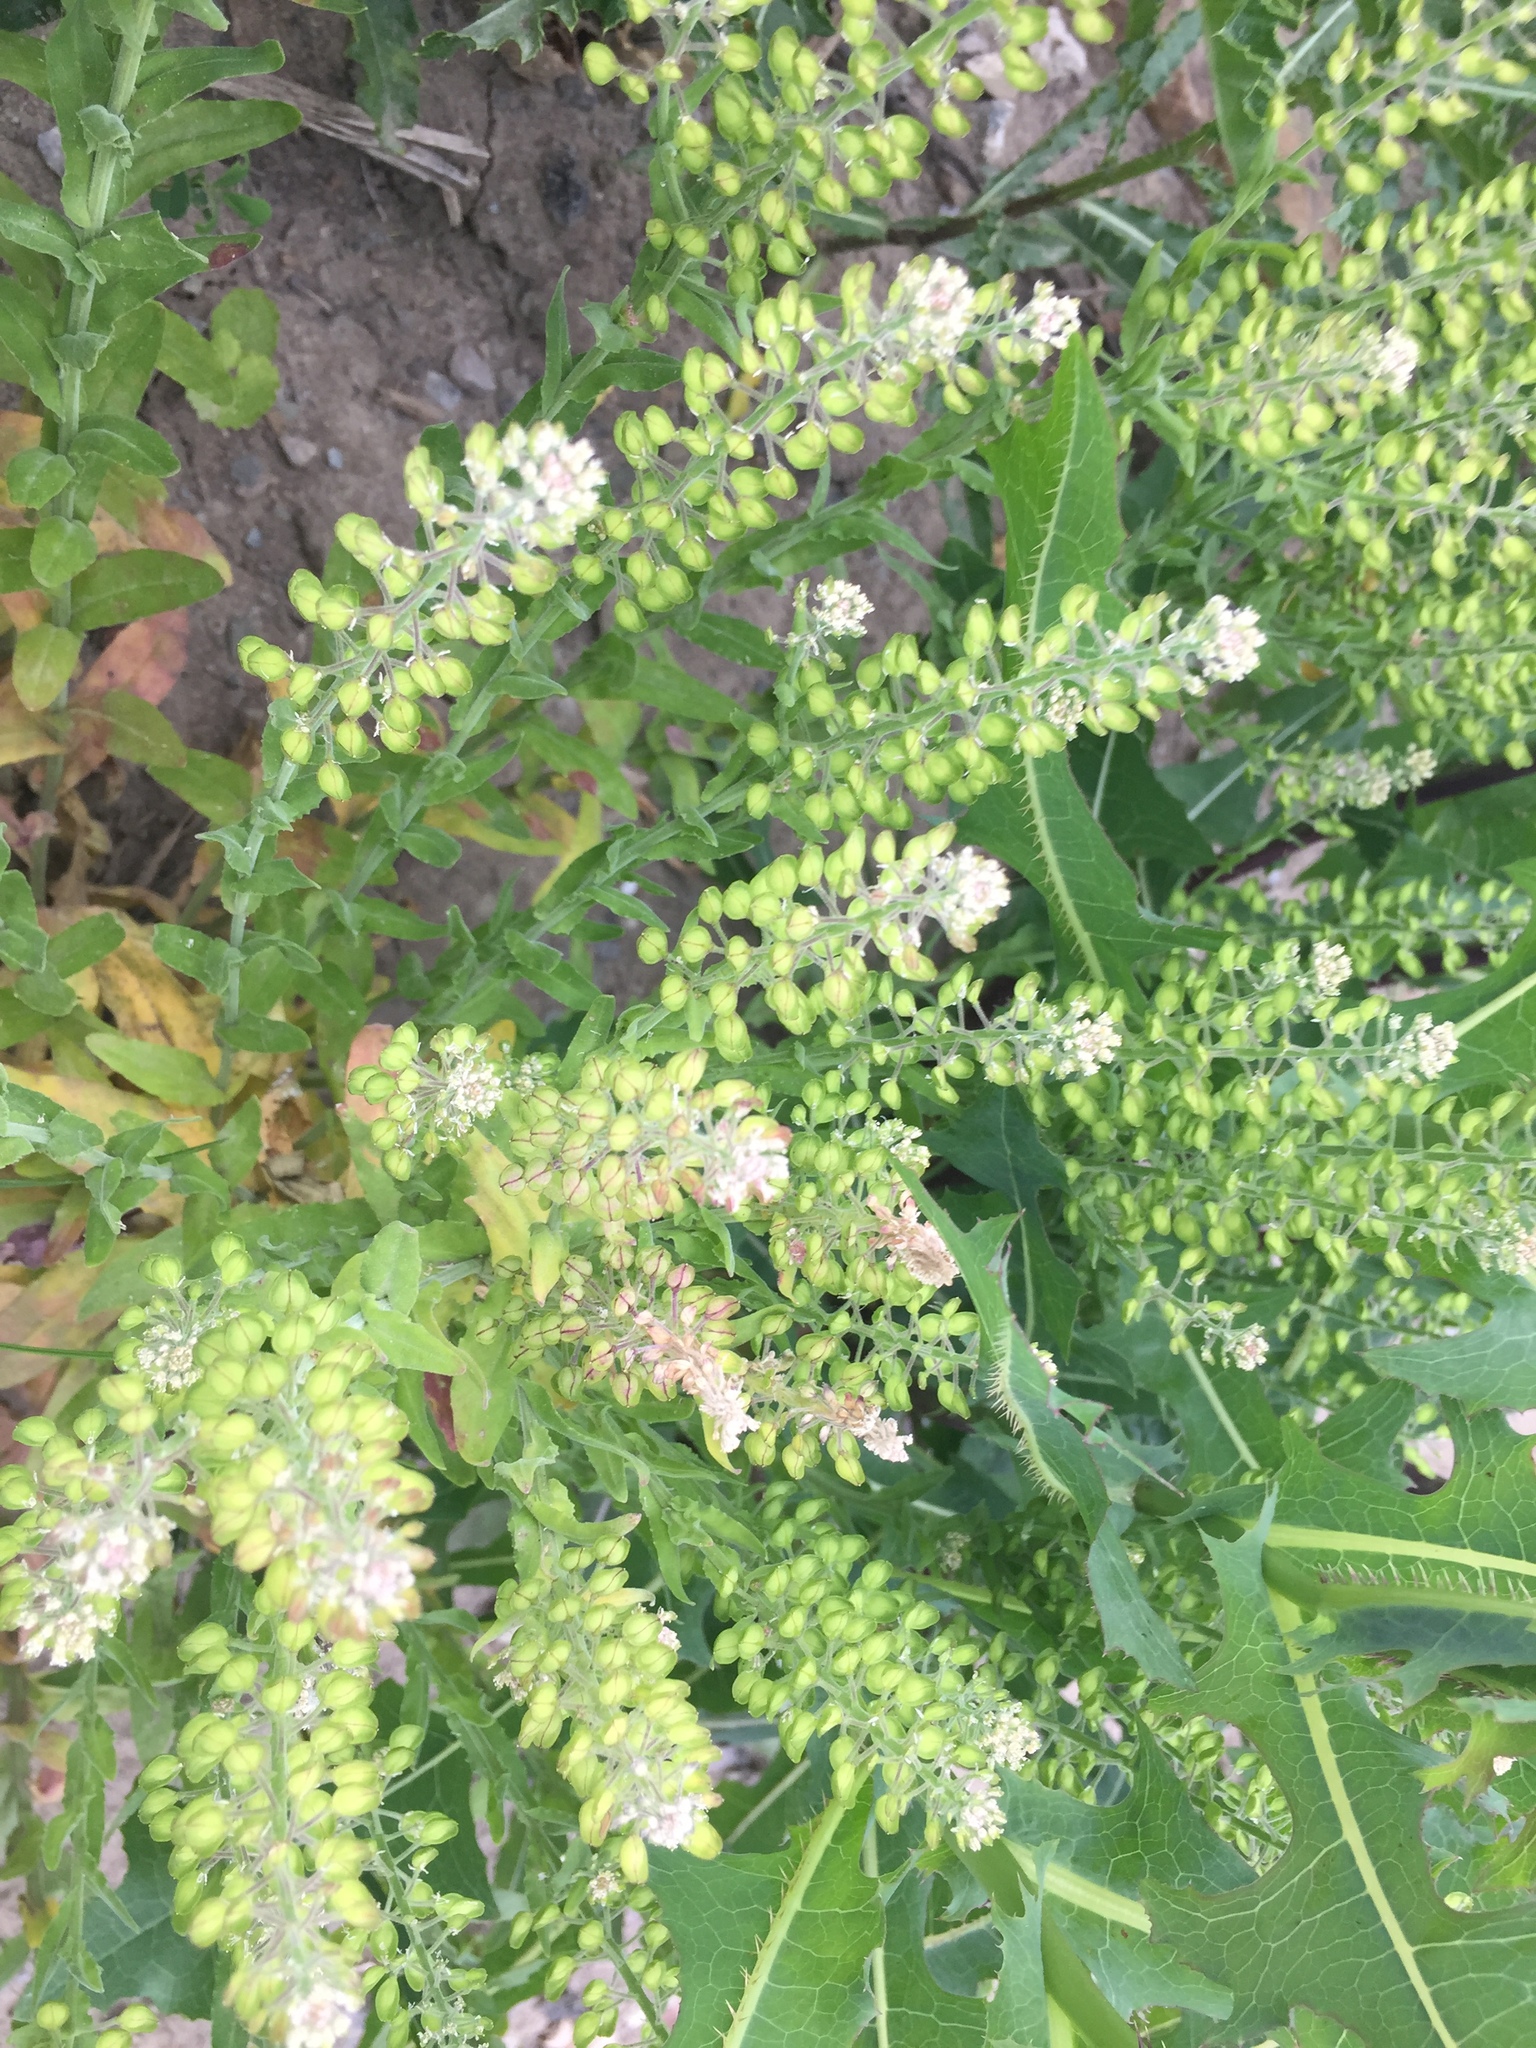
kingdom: Plantae
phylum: Tracheophyta
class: Magnoliopsida
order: Brassicales
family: Brassicaceae
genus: Lepidium
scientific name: Lepidium campestre
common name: Field pepperwort
